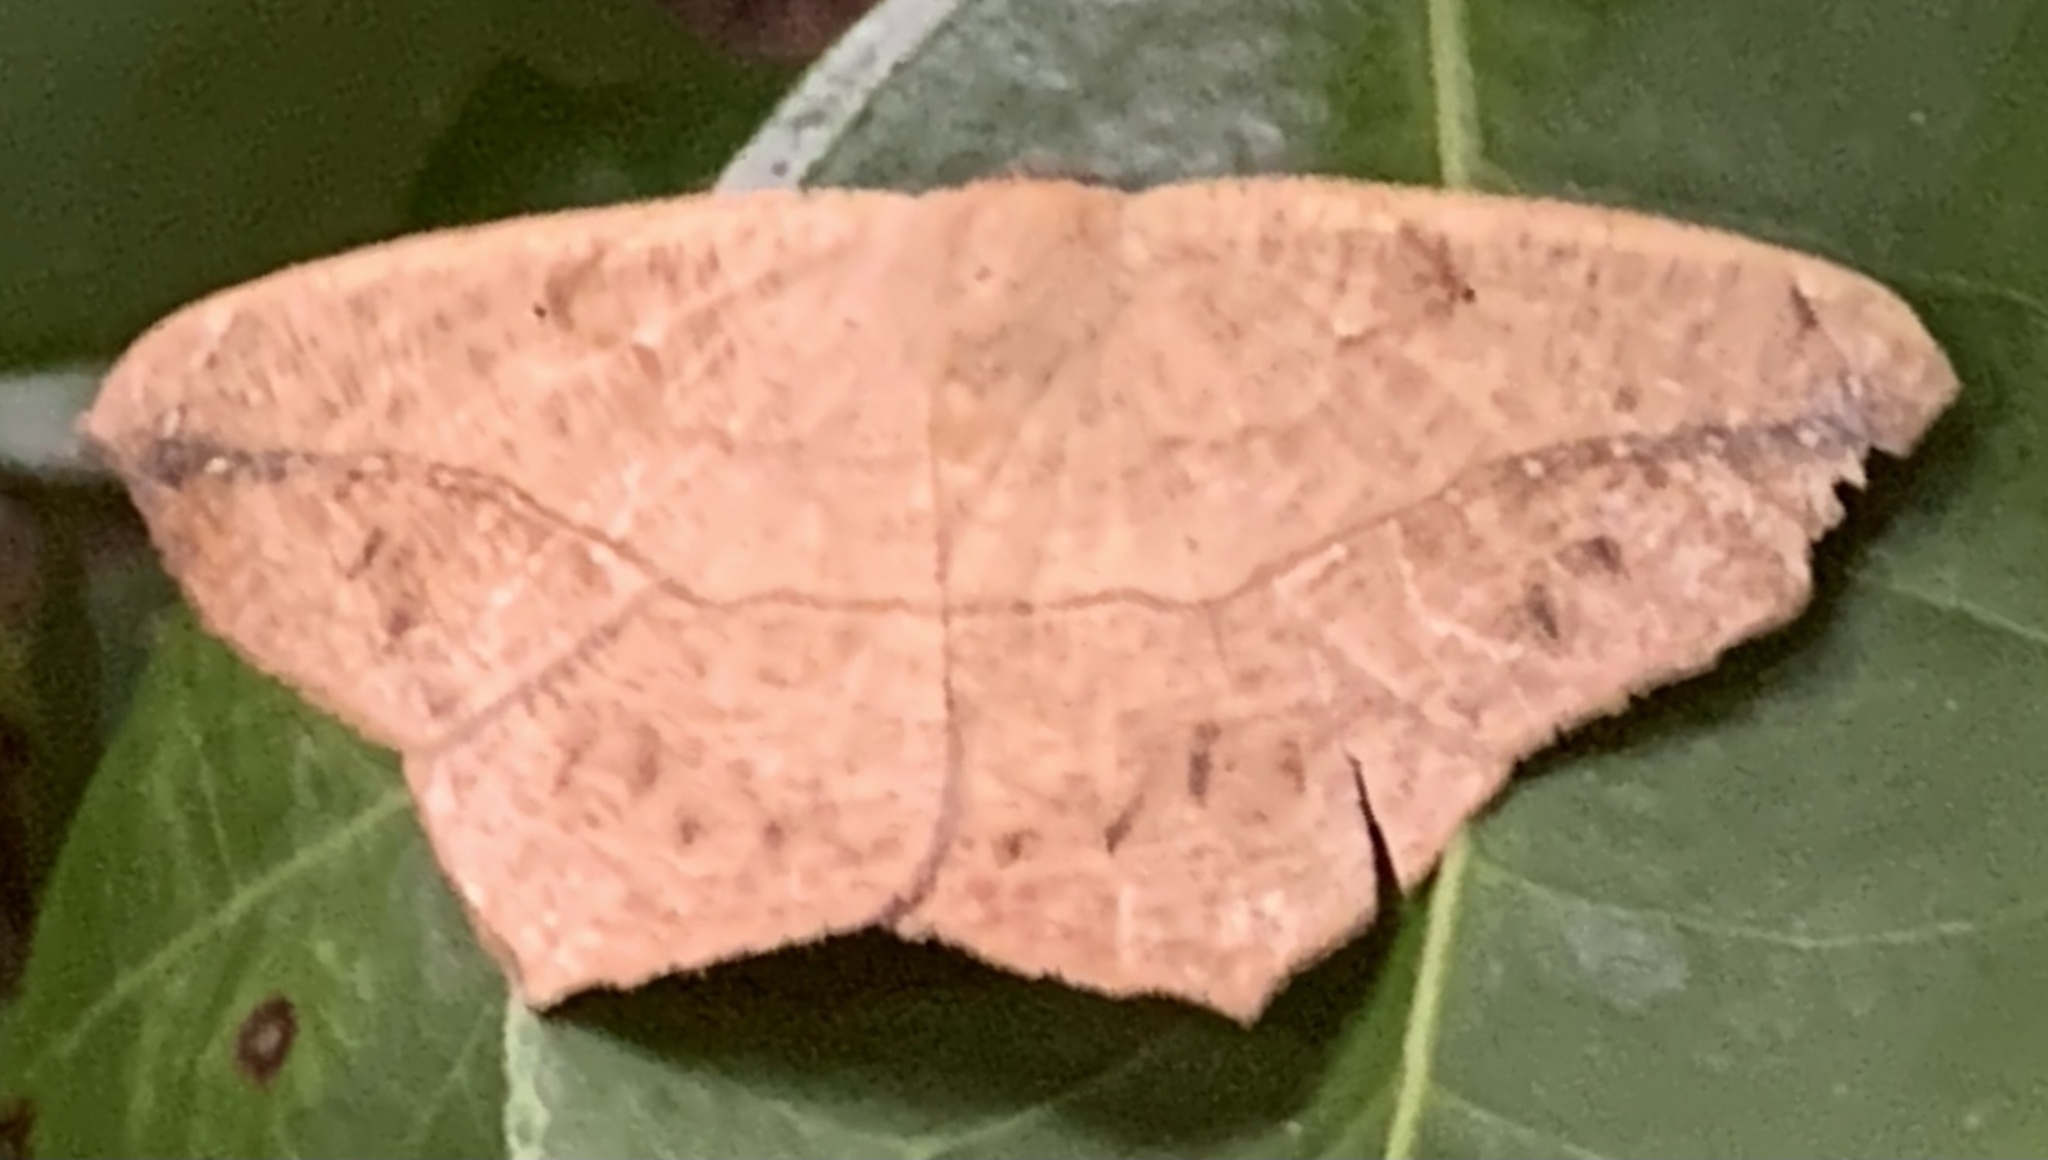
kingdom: Animalia
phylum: Arthropoda
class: Insecta
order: Lepidoptera
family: Geometridae
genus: Prochoerodes
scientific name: Prochoerodes lineola
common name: Large maple spanworm
